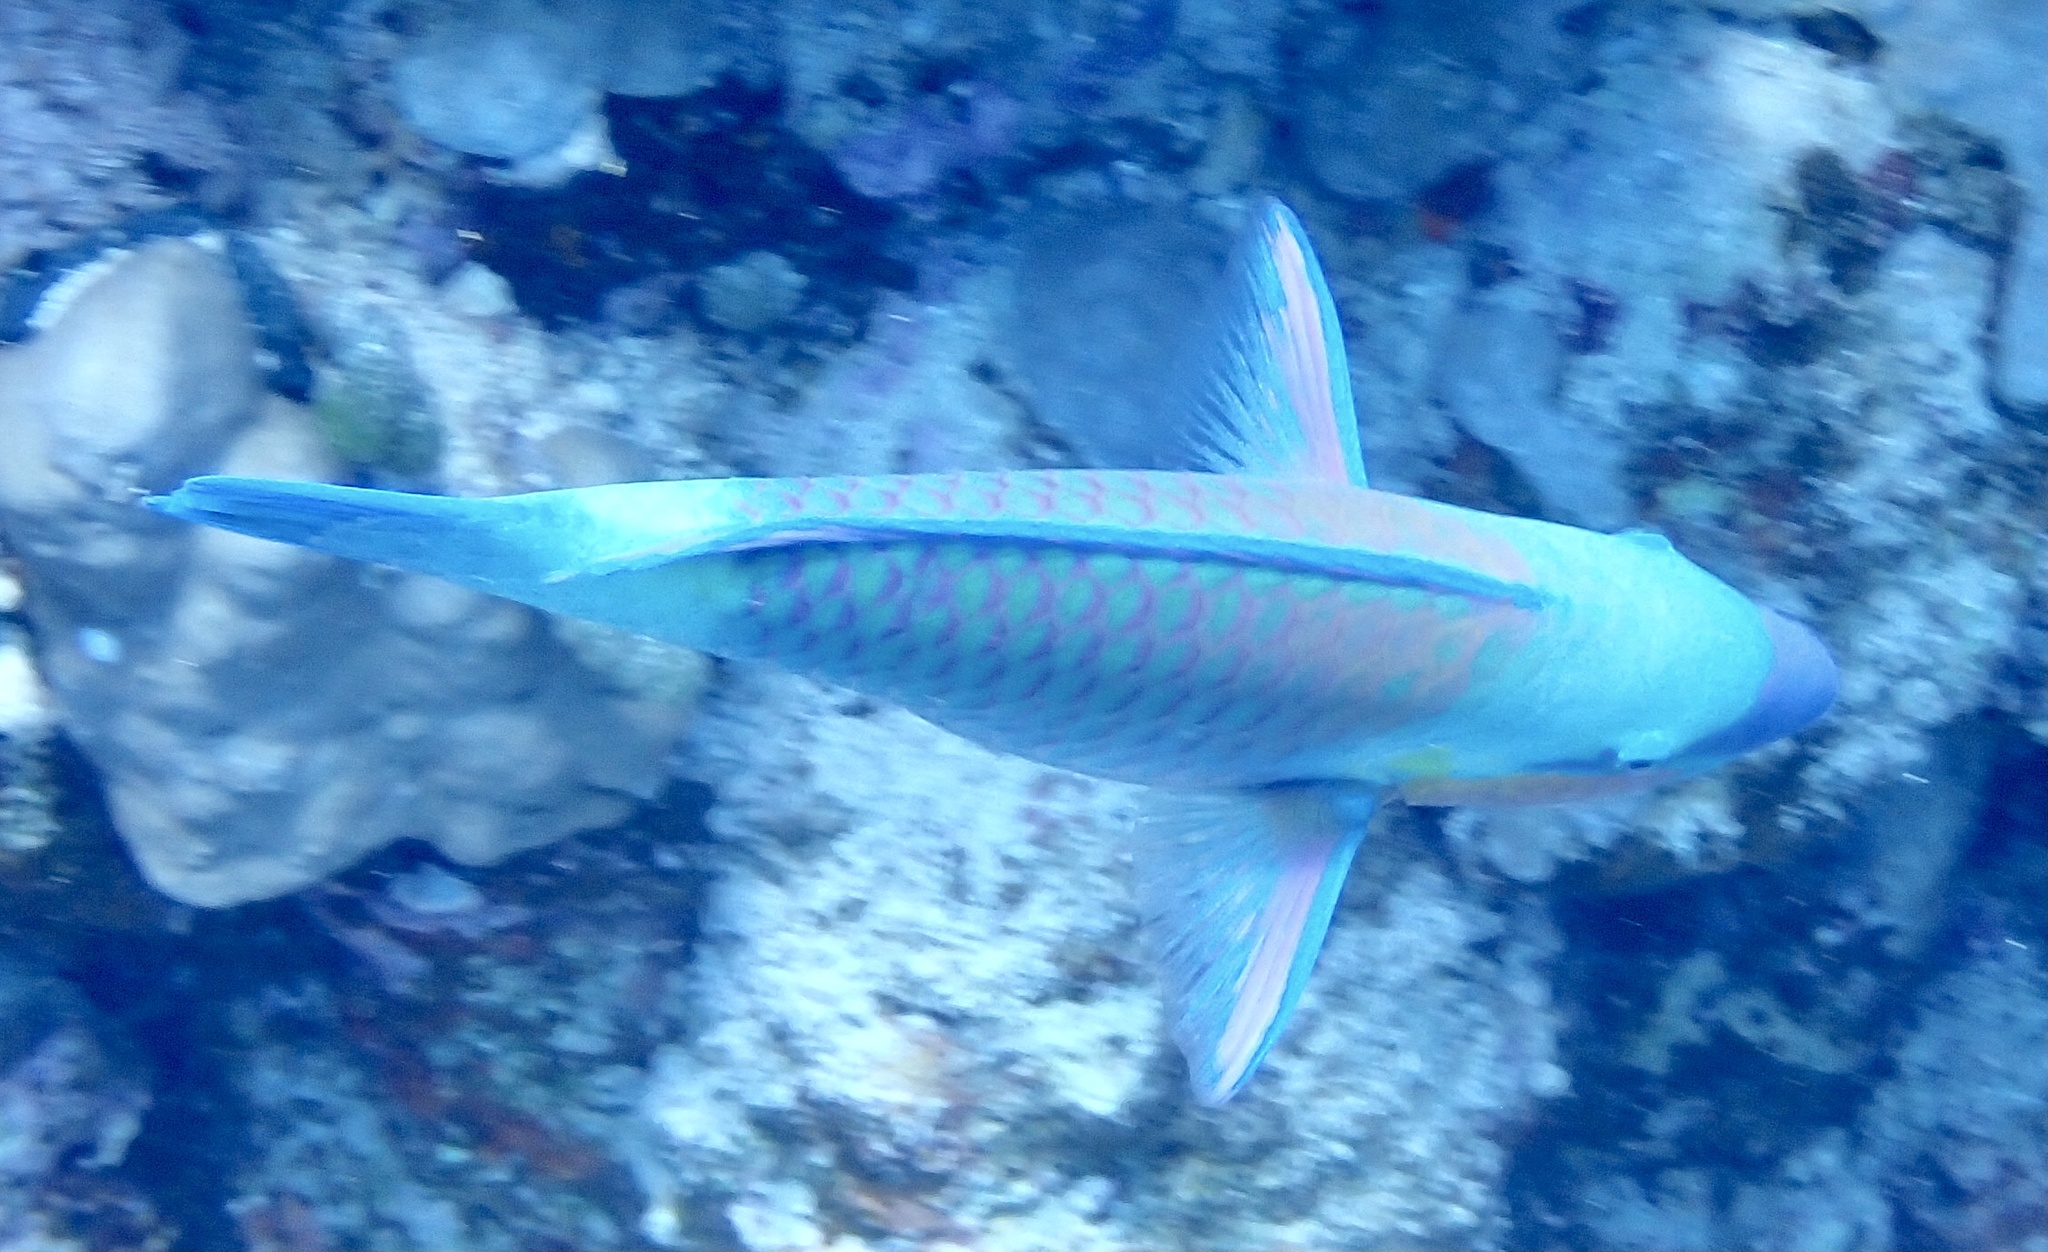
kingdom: Animalia
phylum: Chordata
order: Perciformes
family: Scaridae
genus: Chlorurus
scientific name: Chlorurus sordidus
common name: Bullethead parrotfish
